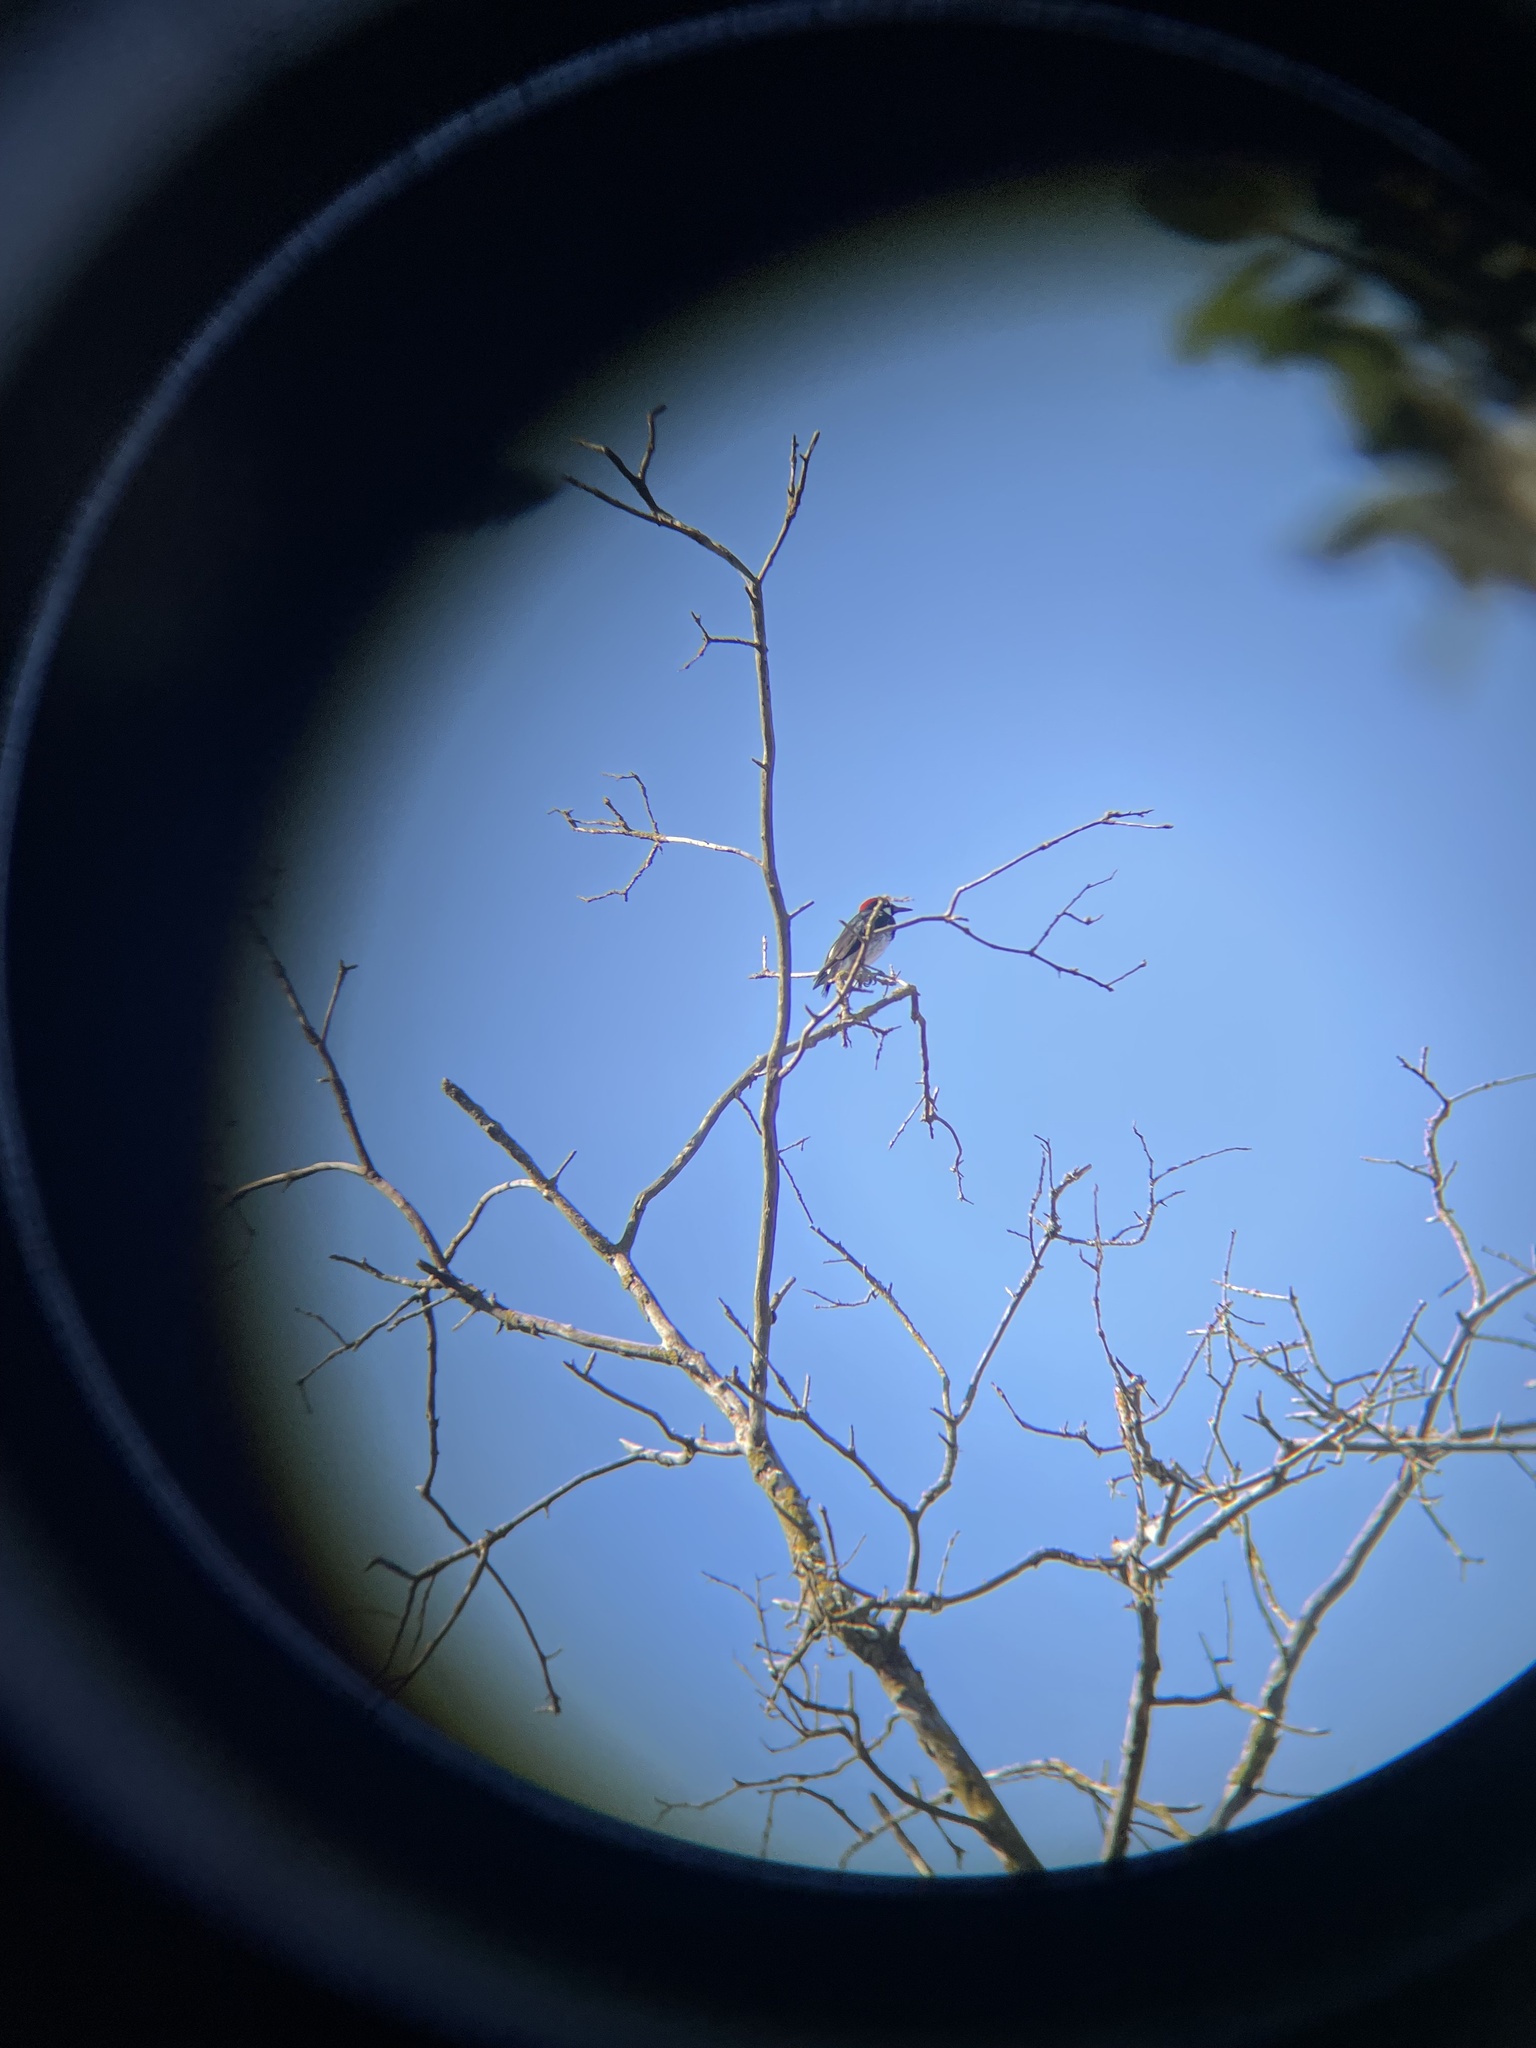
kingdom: Animalia
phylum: Chordata
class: Aves
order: Piciformes
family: Picidae
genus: Melanerpes
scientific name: Melanerpes formicivorus
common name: Acorn woodpecker
